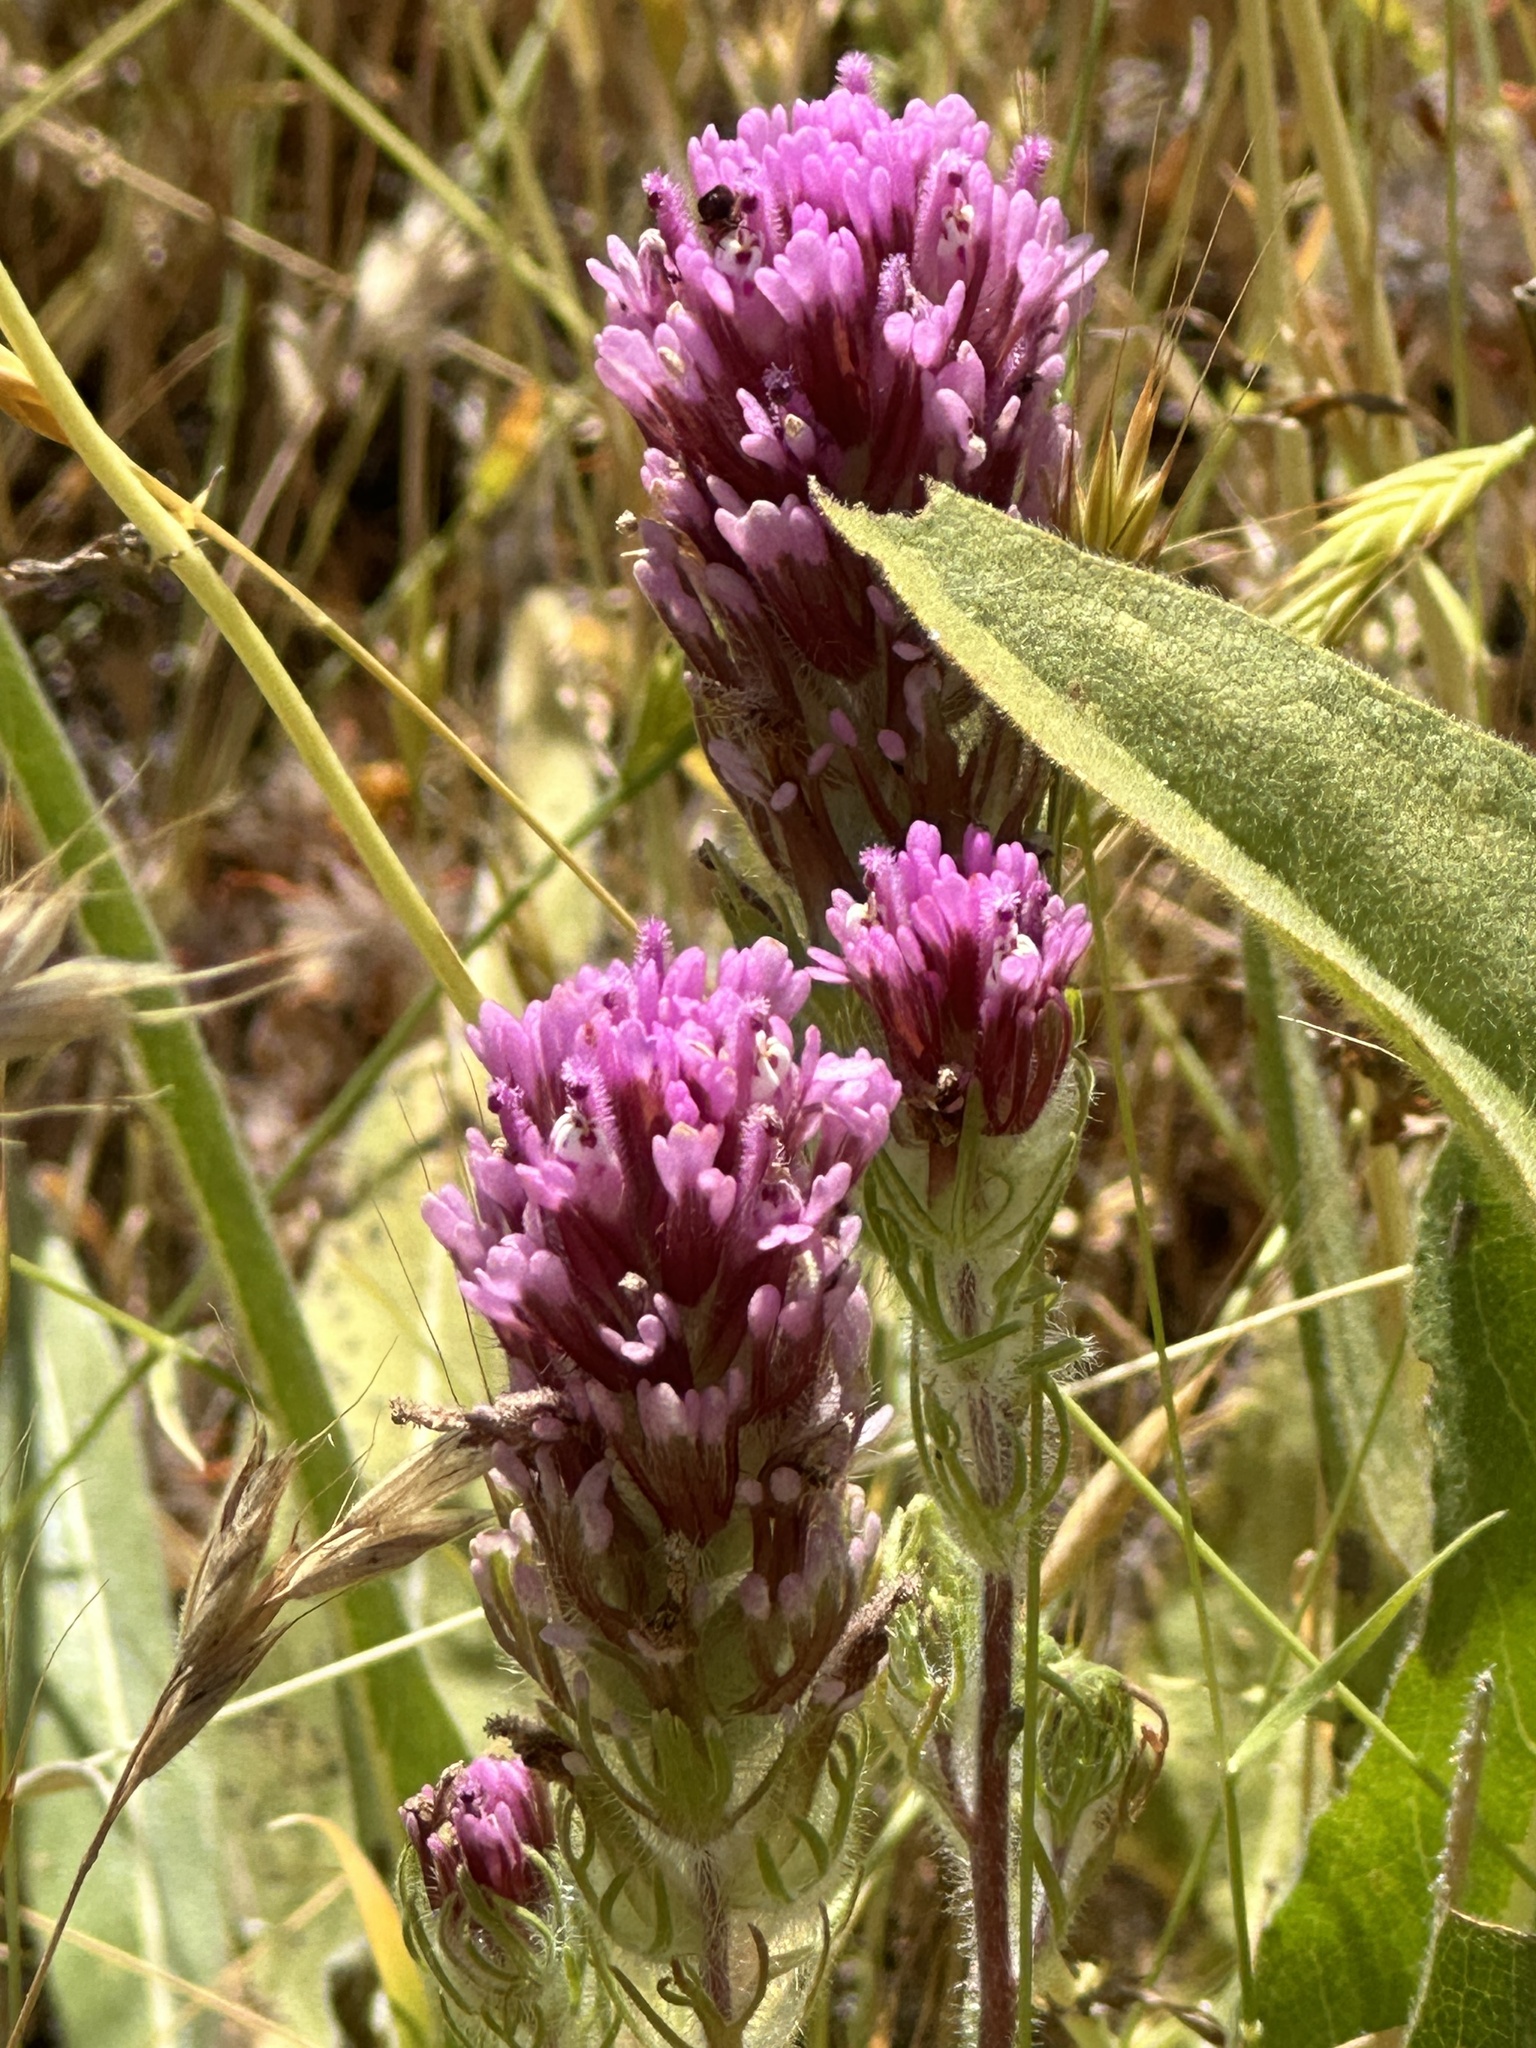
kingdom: Plantae
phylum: Tracheophyta
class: Magnoliopsida
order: Lamiales
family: Orobanchaceae
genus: Castilleja
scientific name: Castilleja exserta
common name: Purple owl-clover
